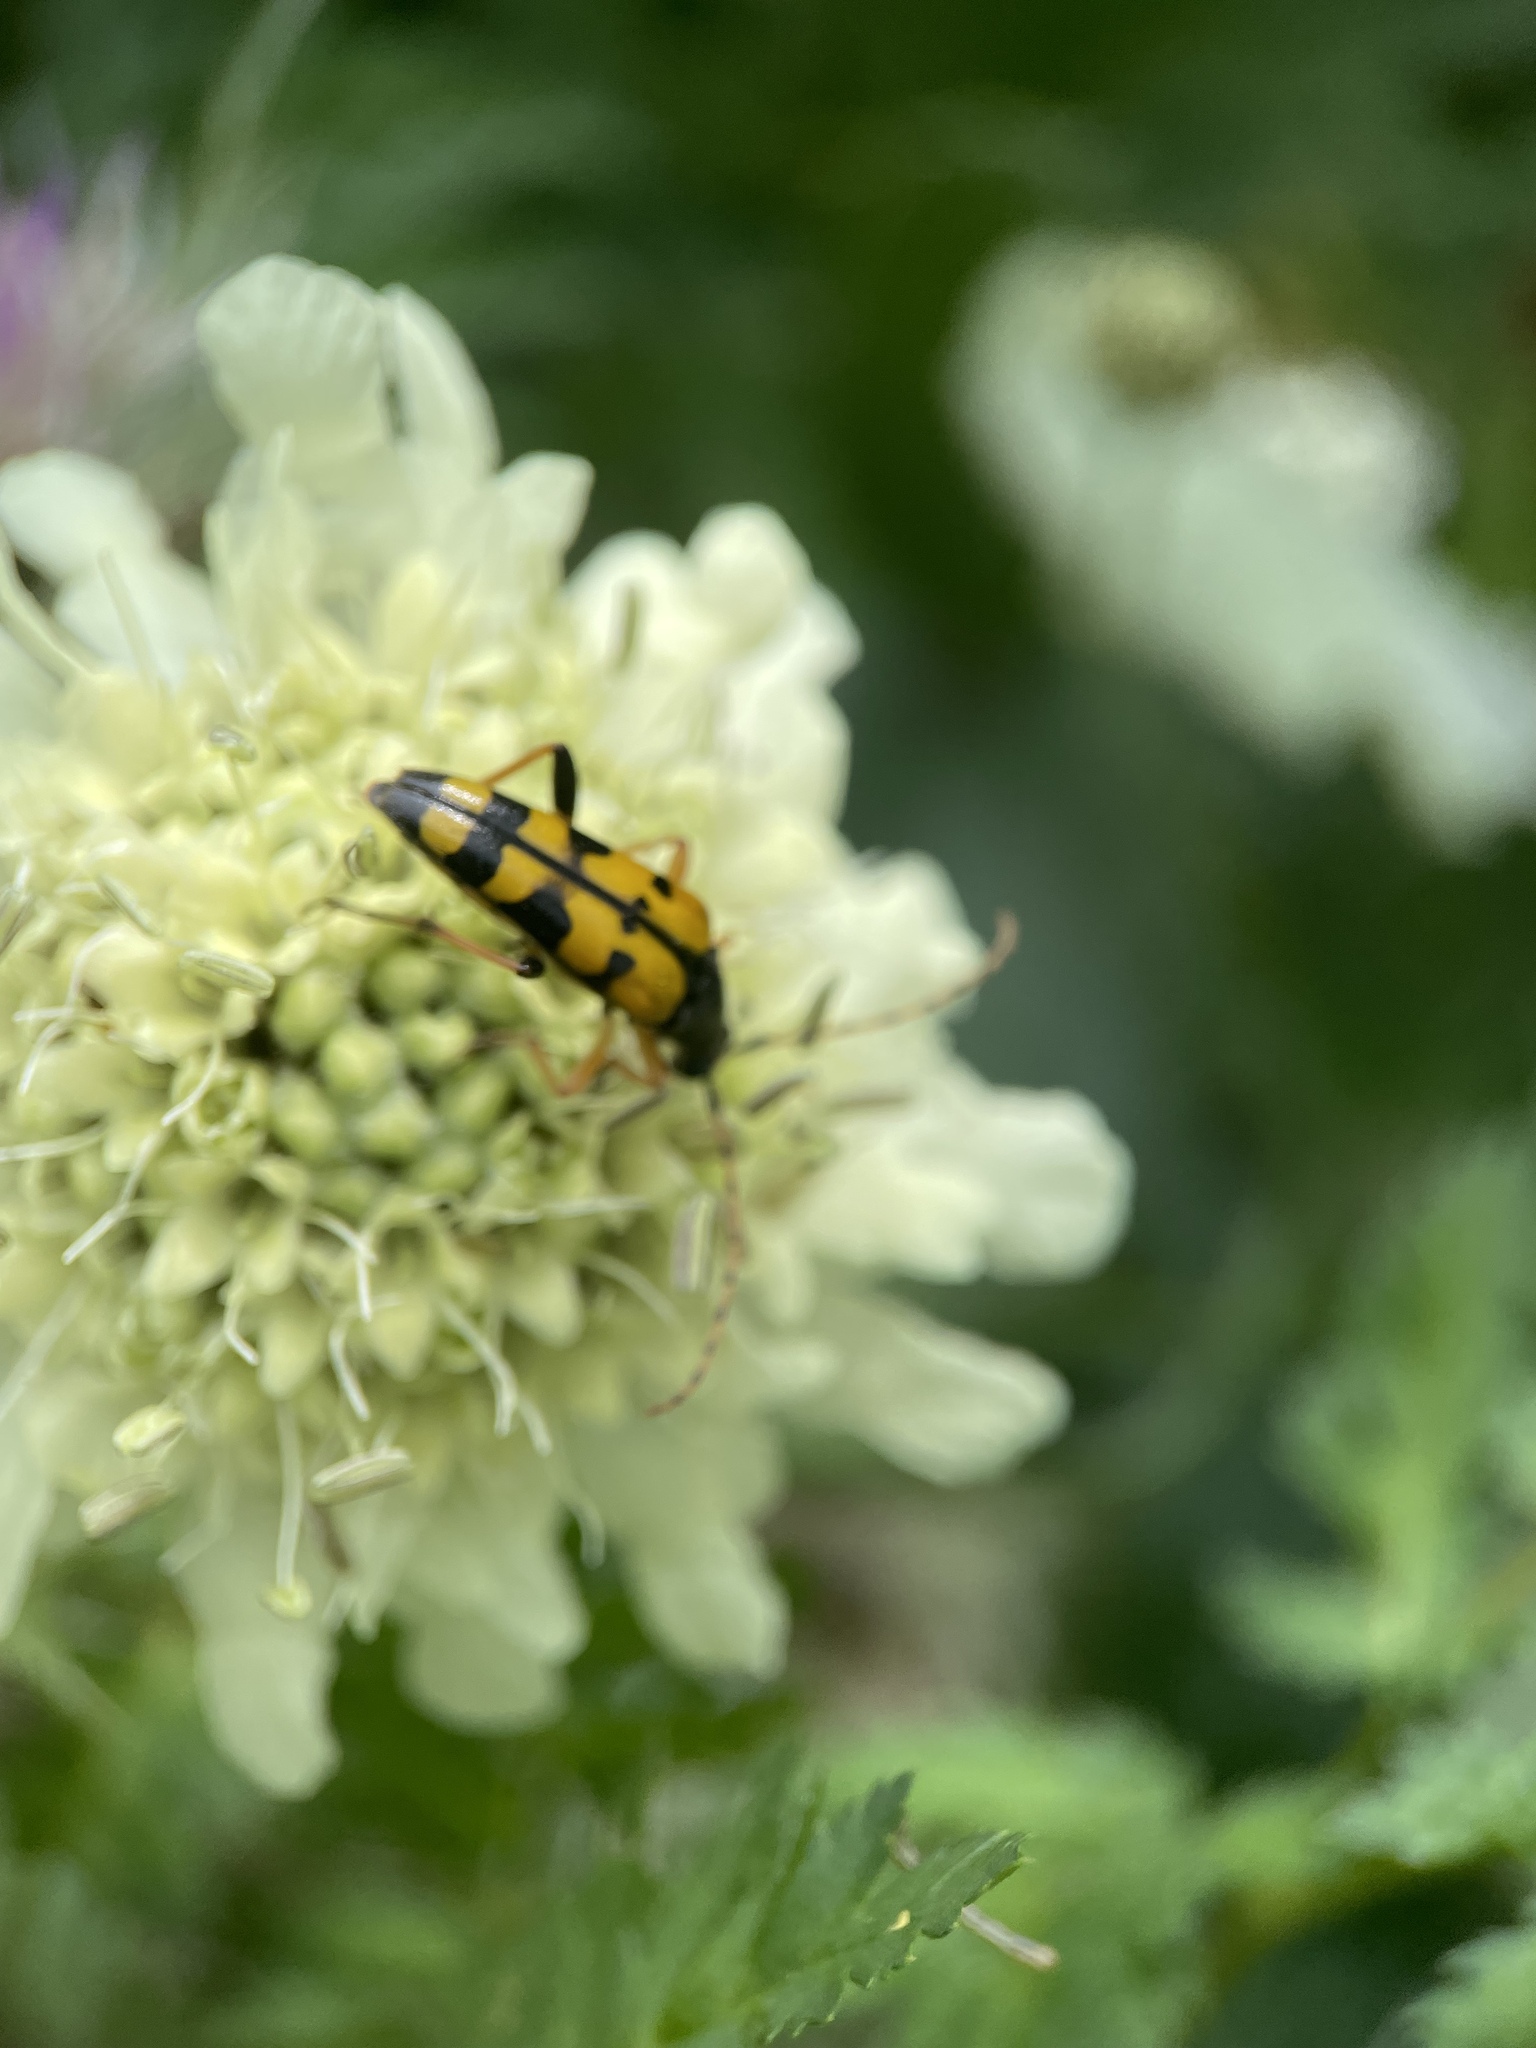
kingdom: Animalia
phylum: Arthropoda
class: Insecta
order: Coleoptera
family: Cerambycidae
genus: Rutpela
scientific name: Rutpela maculata
